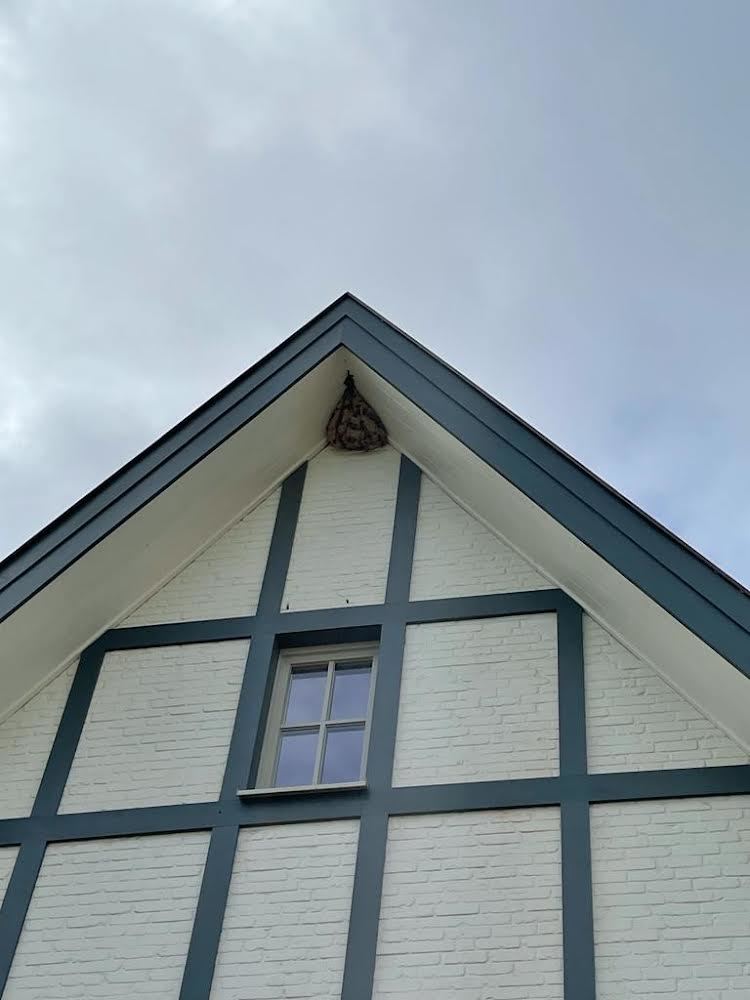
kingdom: Animalia
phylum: Arthropoda
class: Insecta
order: Hymenoptera
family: Vespidae
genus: Vespa
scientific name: Vespa velutina
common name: Asian hornet
